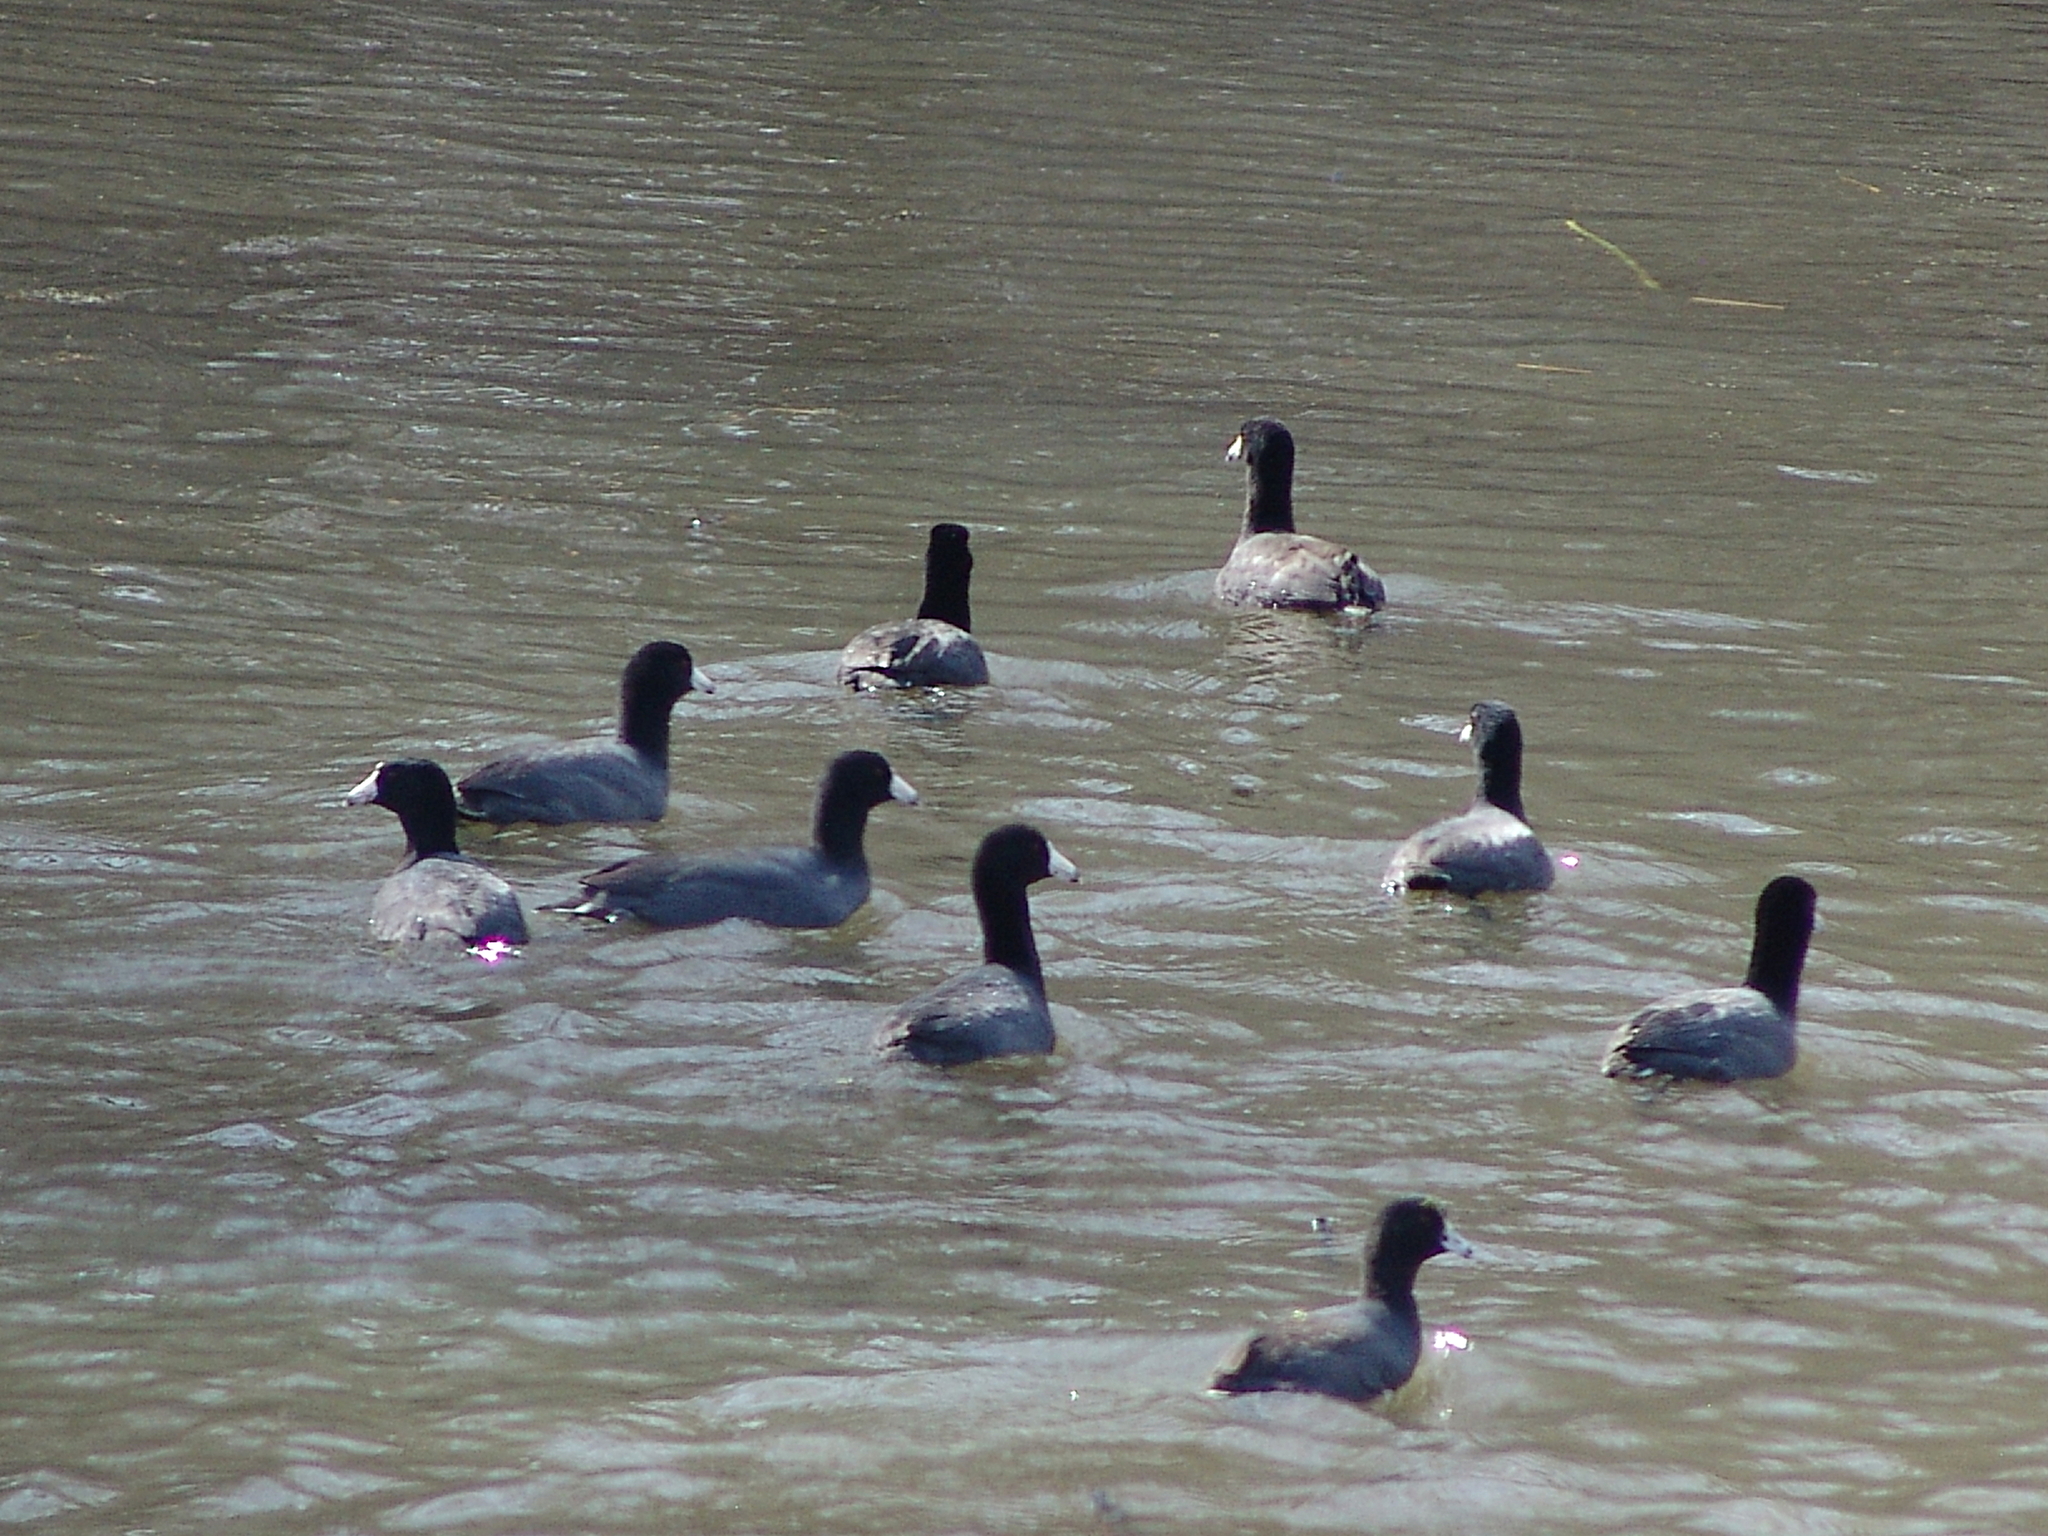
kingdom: Animalia
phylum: Chordata
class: Aves
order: Gruiformes
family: Rallidae
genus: Fulica
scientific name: Fulica americana
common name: American coot
